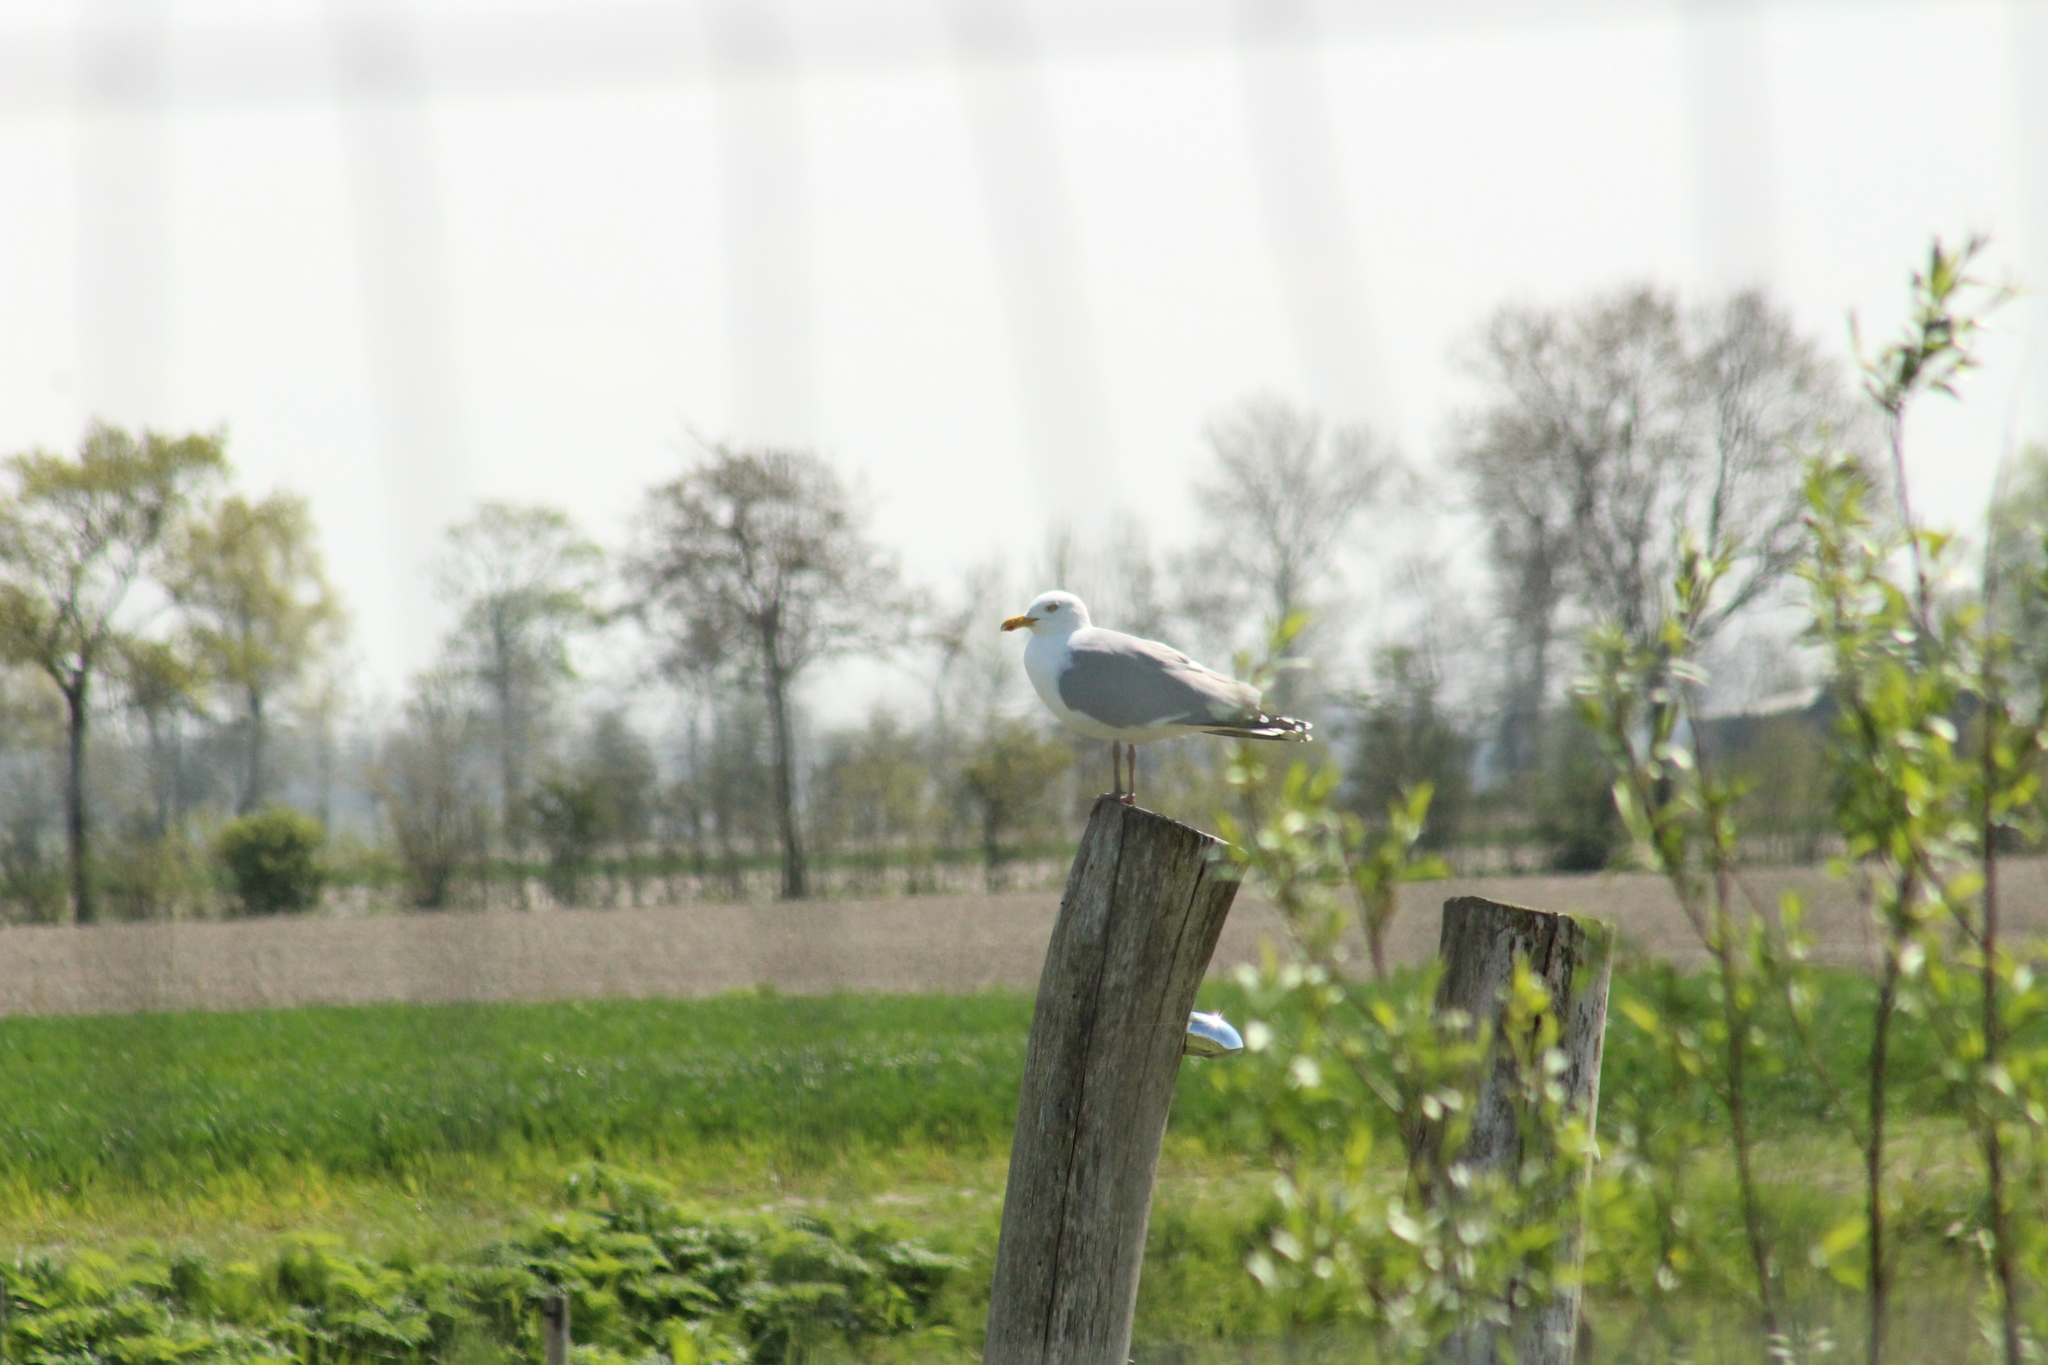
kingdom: Animalia
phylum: Chordata
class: Aves
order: Charadriiformes
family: Laridae
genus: Larus
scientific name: Larus argentatus
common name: Herring gull
